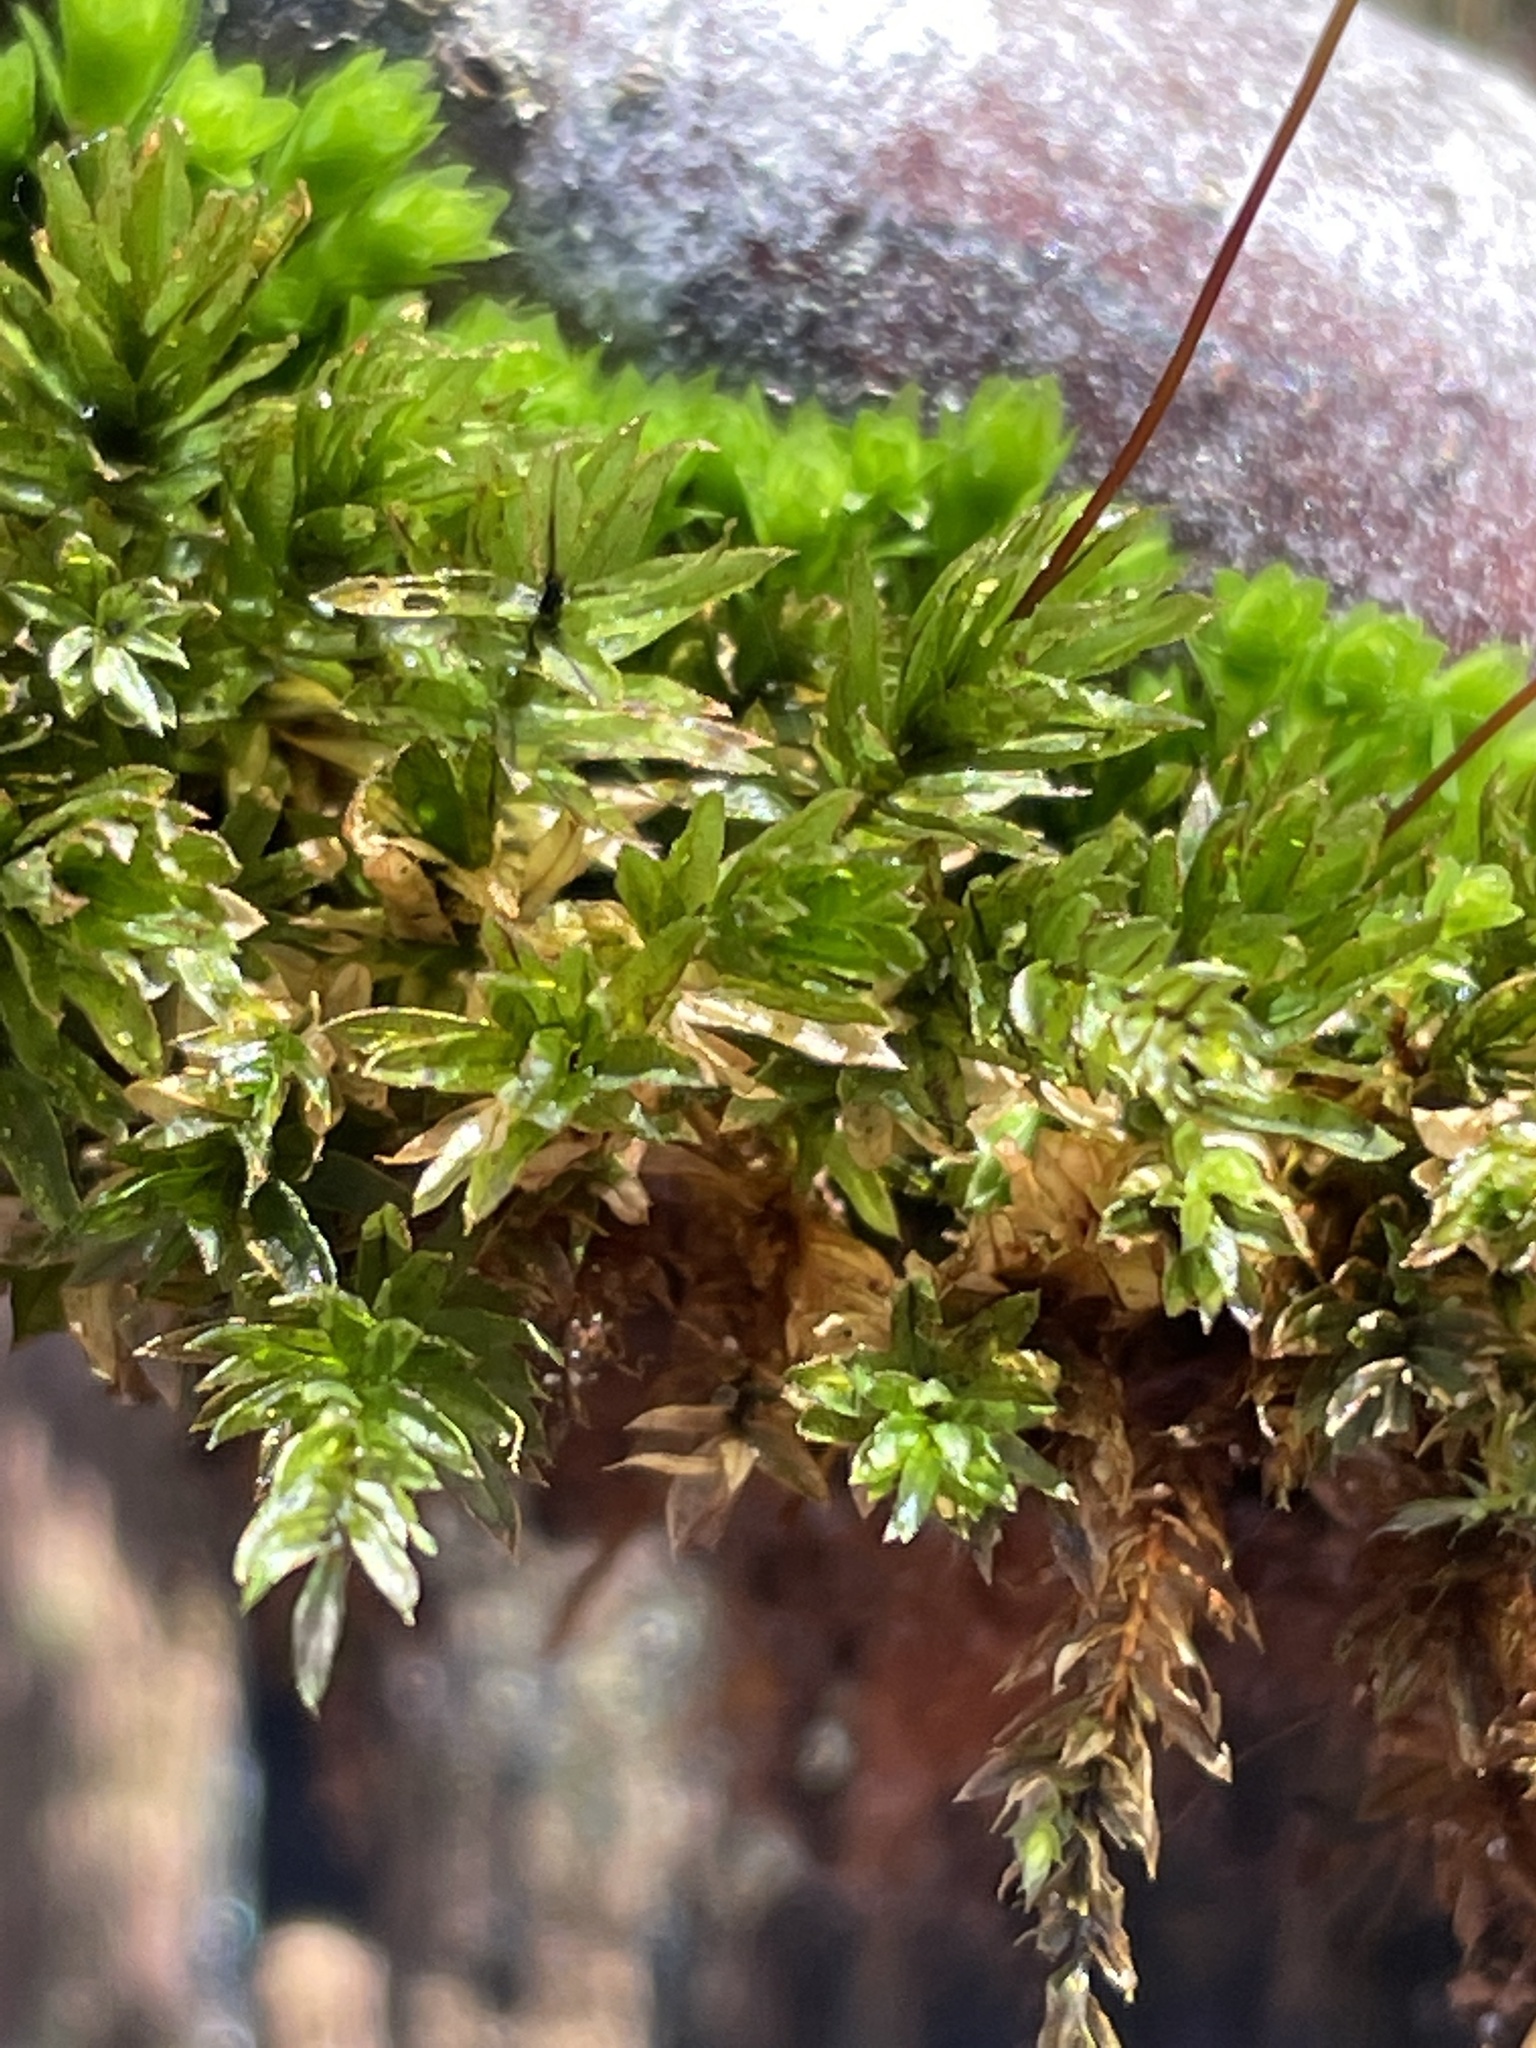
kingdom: Plantae
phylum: Bryophyta
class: Bryopsida
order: Bryales
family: Mniaceae
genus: Mnium
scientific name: Mnium hornum
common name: Swan's-neck leafy moss
